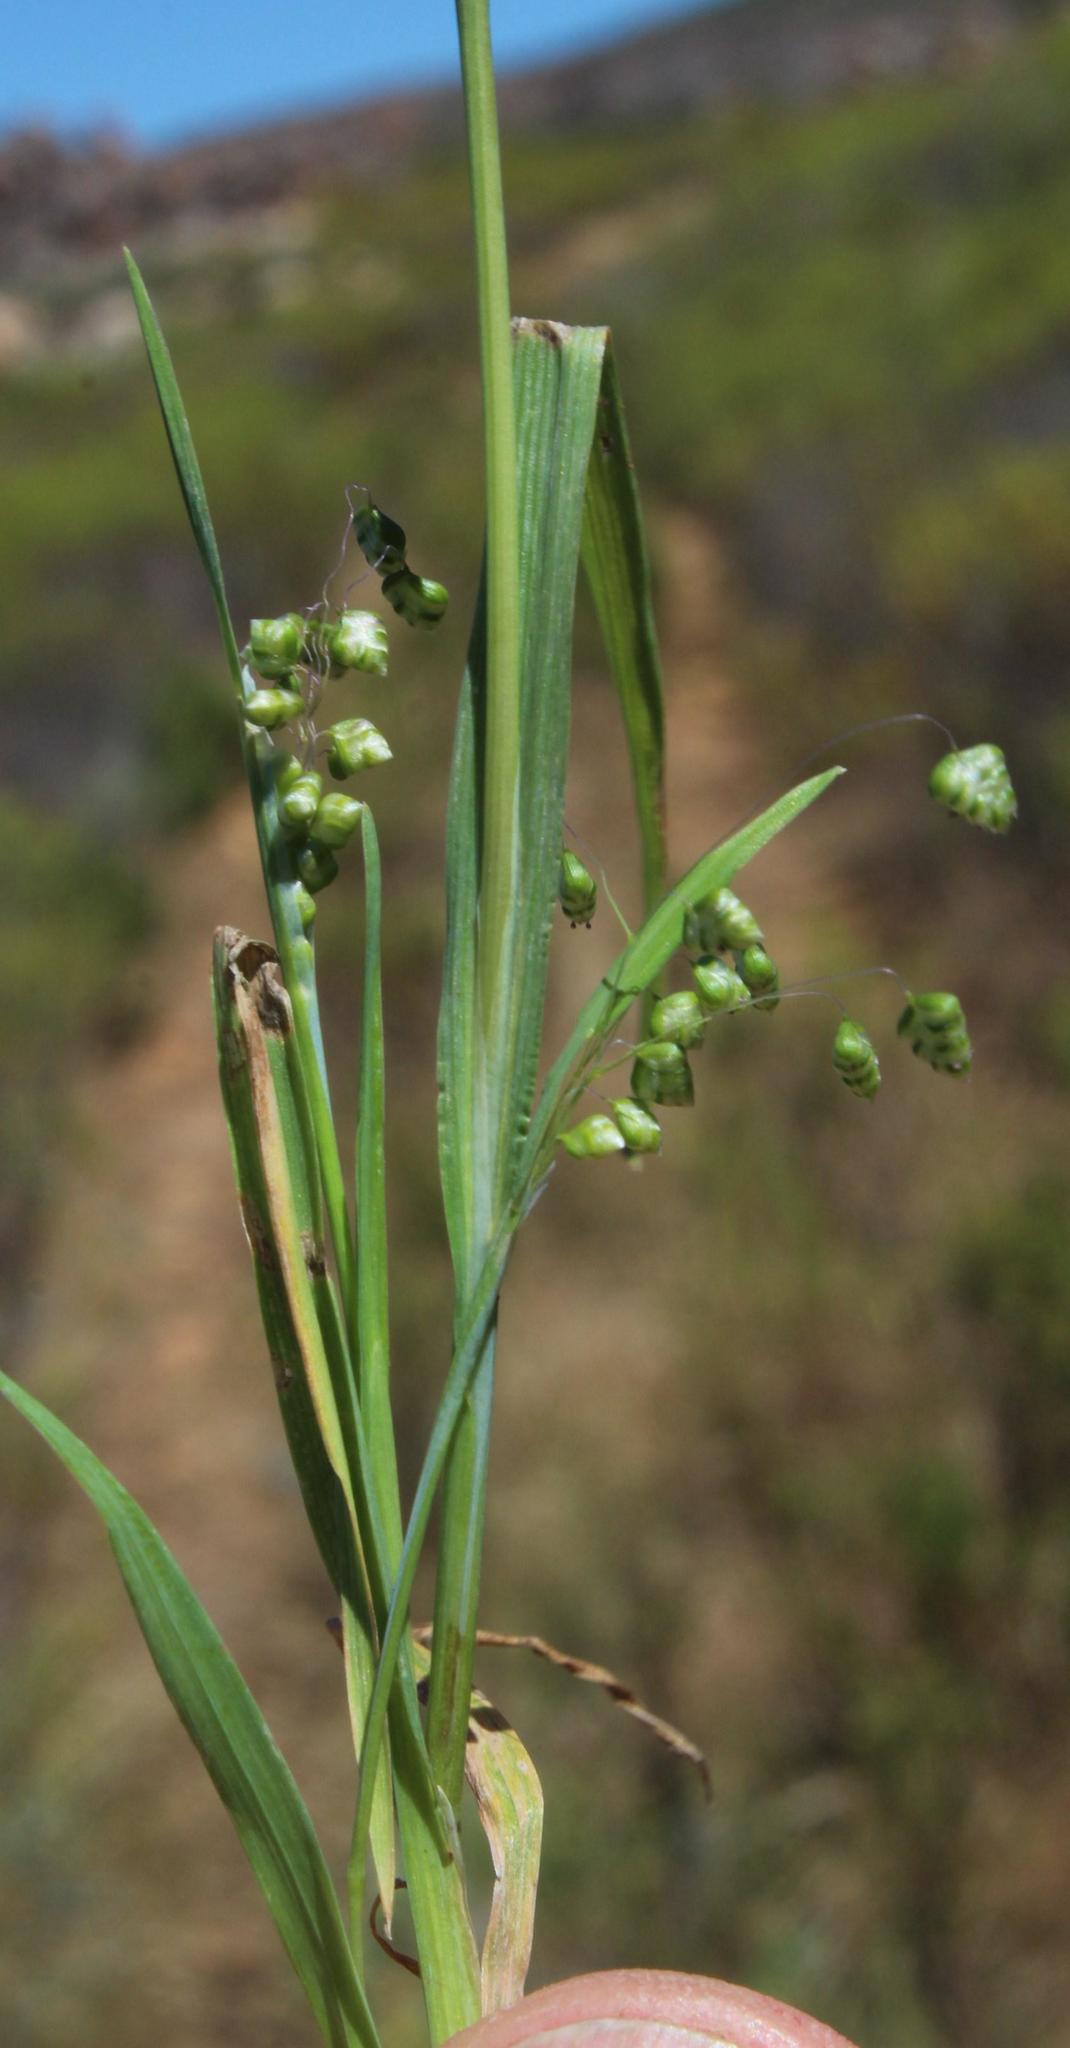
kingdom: Plantae
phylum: Tracheophyta
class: Liliopsida
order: Poales
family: Poaceae
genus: Briza
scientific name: Briza minor
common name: Lesser quaking-grass
